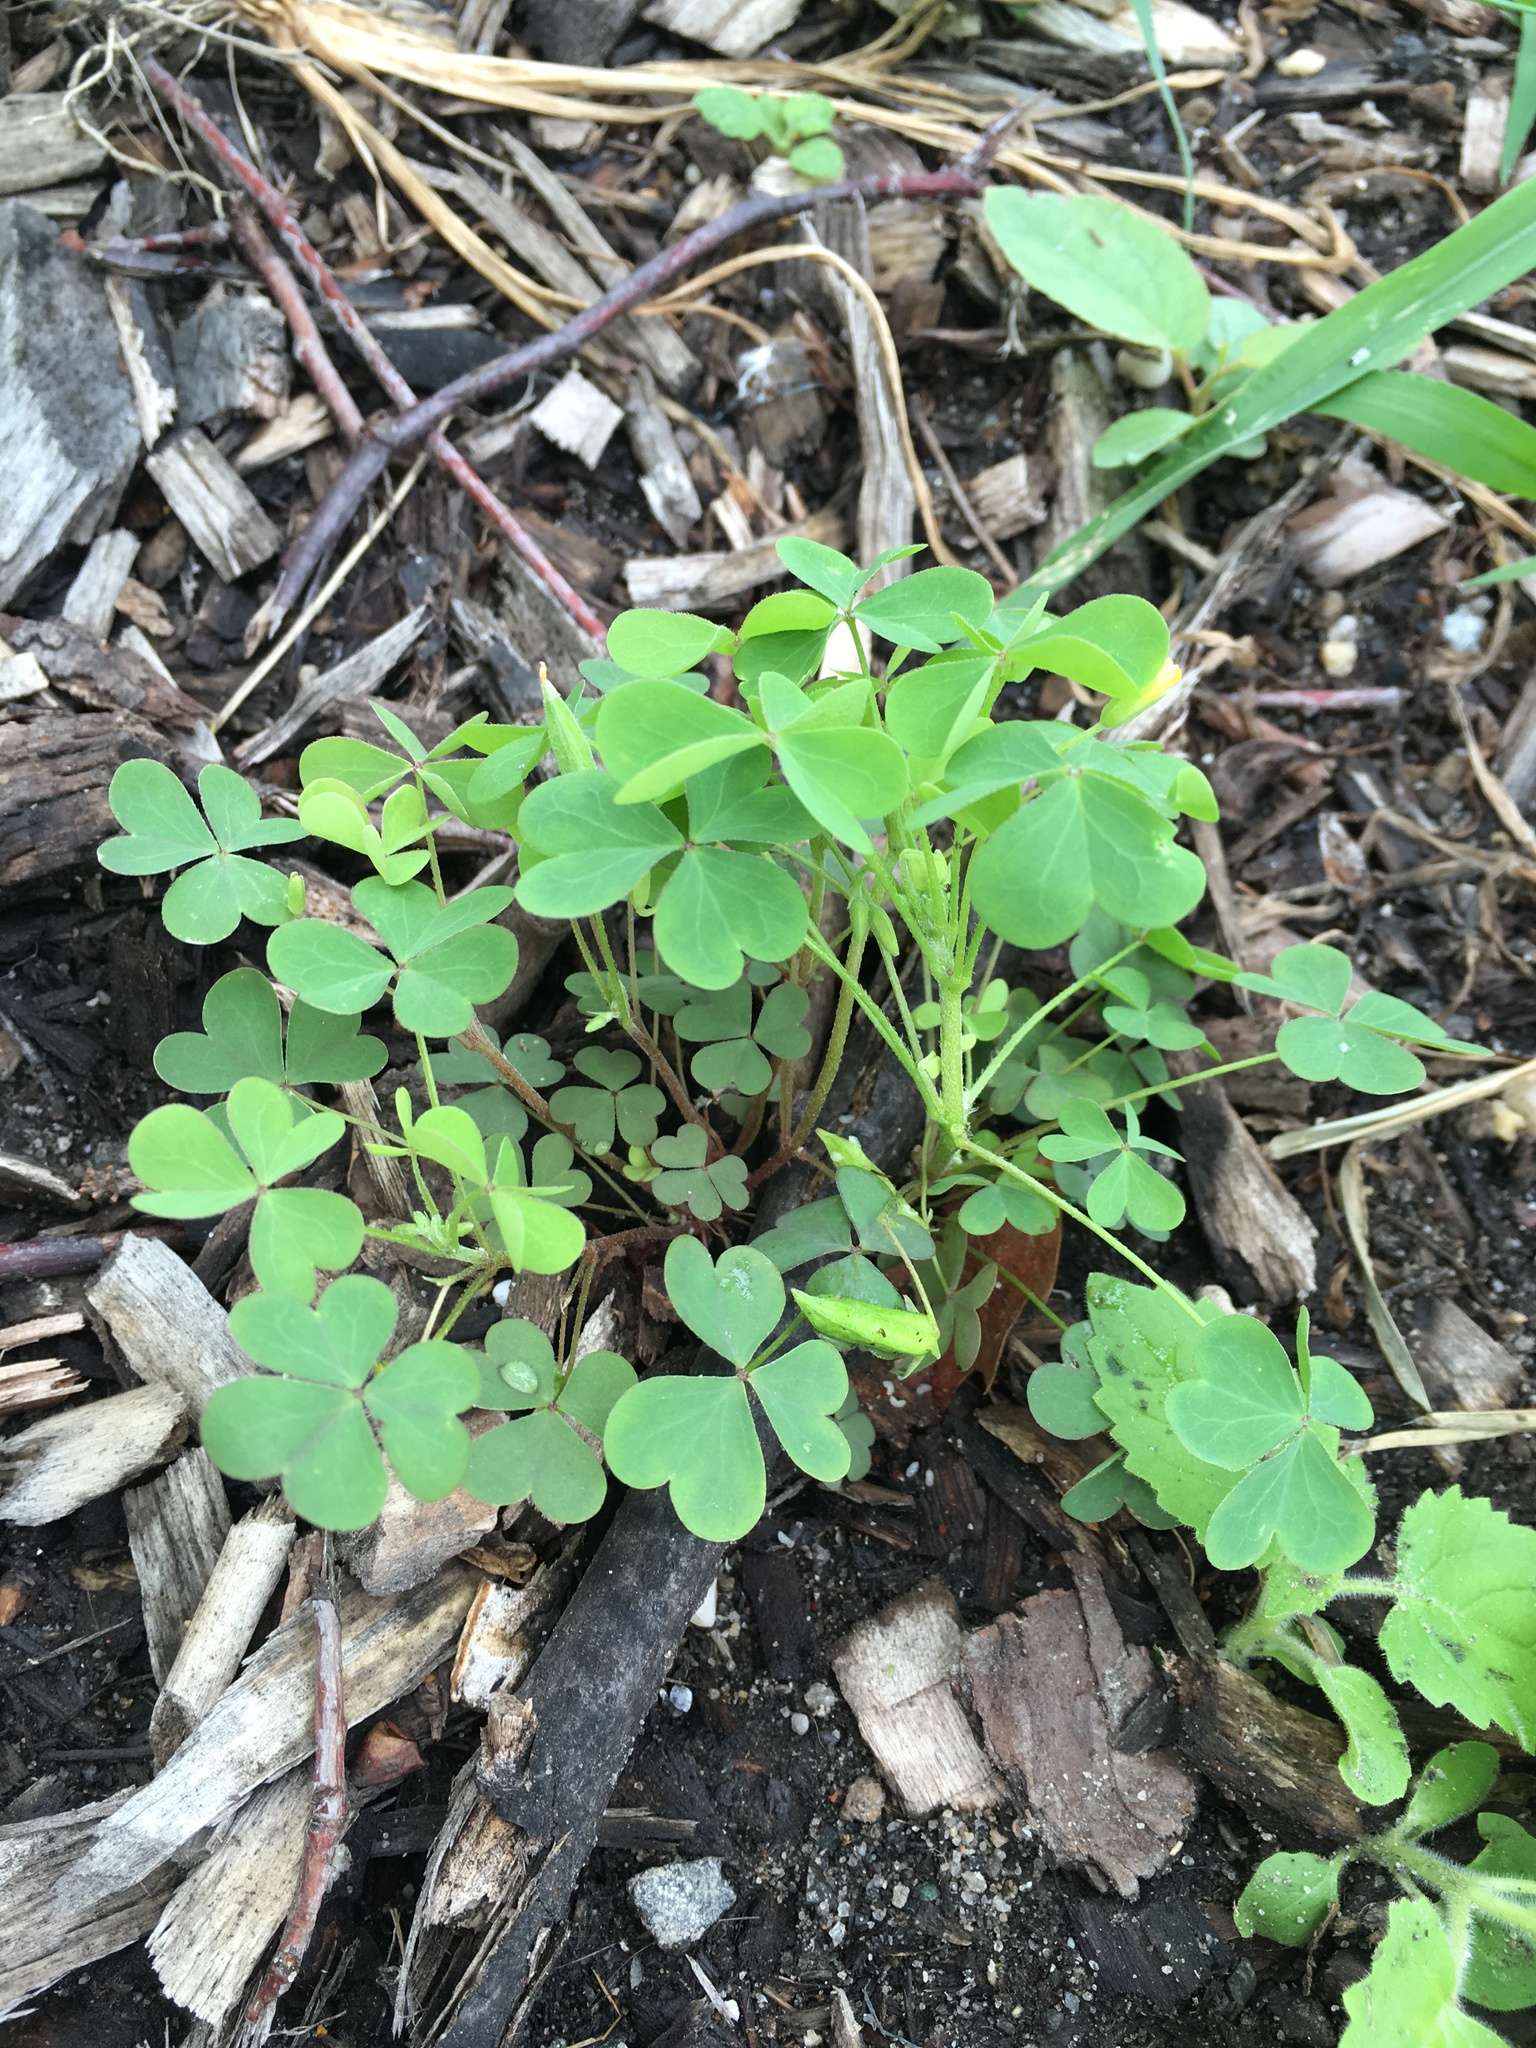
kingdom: Plantae
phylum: Tracheophyta
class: Magnoliopsida
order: Oxalidales
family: Oxalidaceae
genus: Oxalis
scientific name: Oxalis dillenii
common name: Sussex yellow-sorrel
